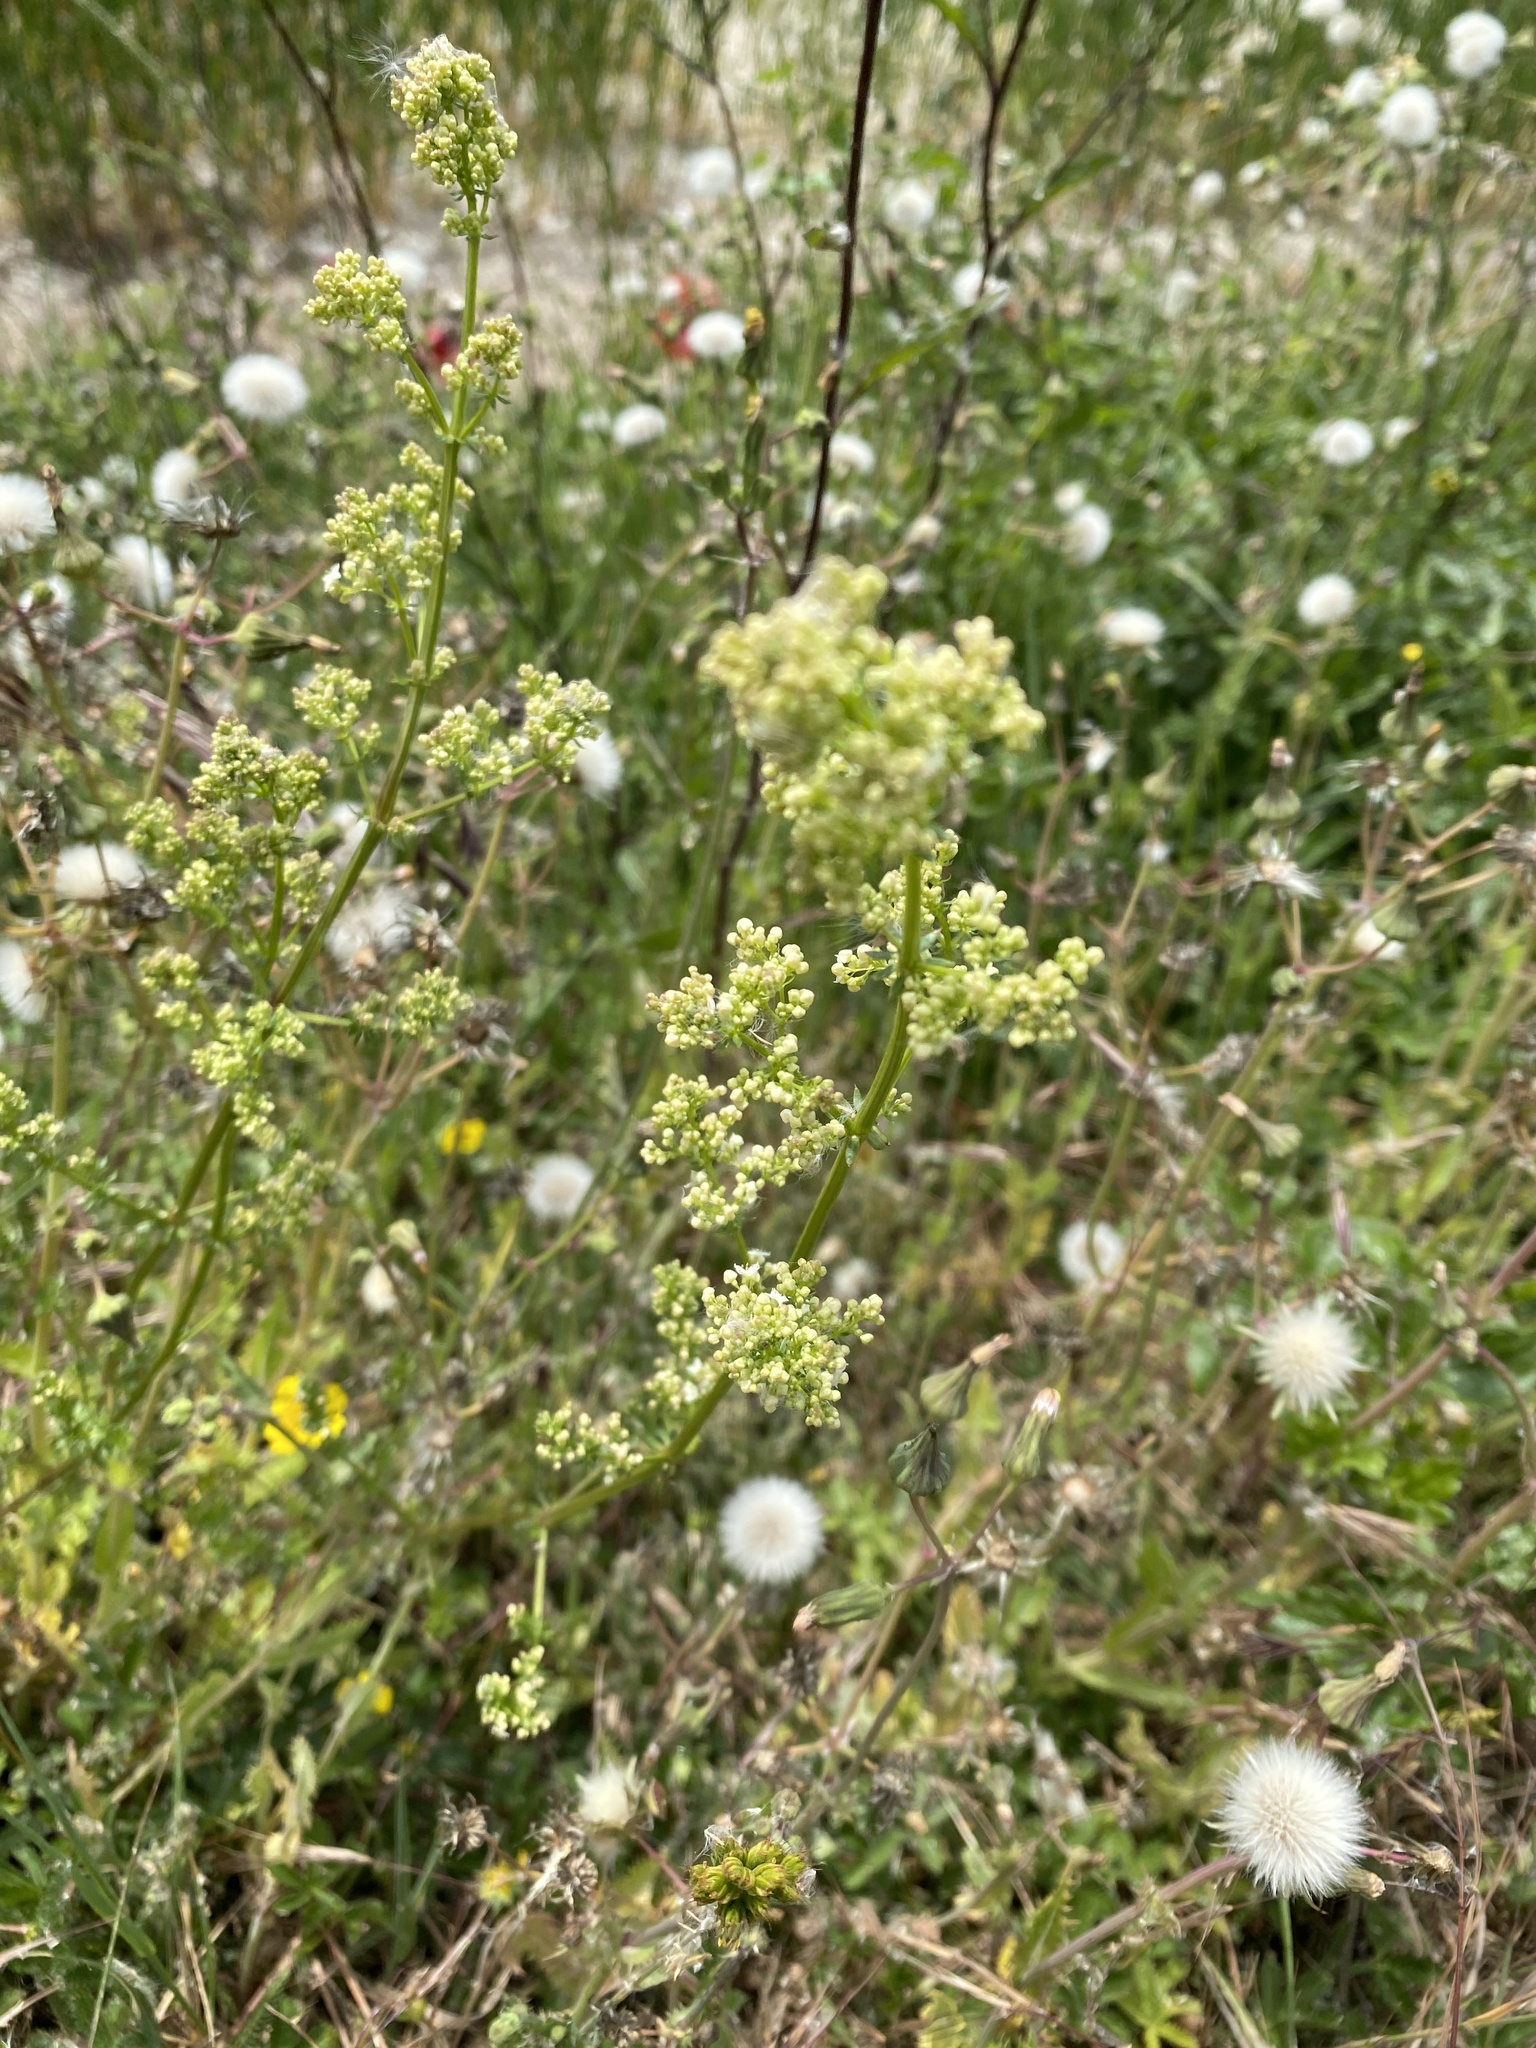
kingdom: Plantae
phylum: Tracheophyta
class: Magnoliopsida
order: Gentianales
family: Rubiaceae
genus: Galium
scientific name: Galium mollugo
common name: Hedge bedstraw
